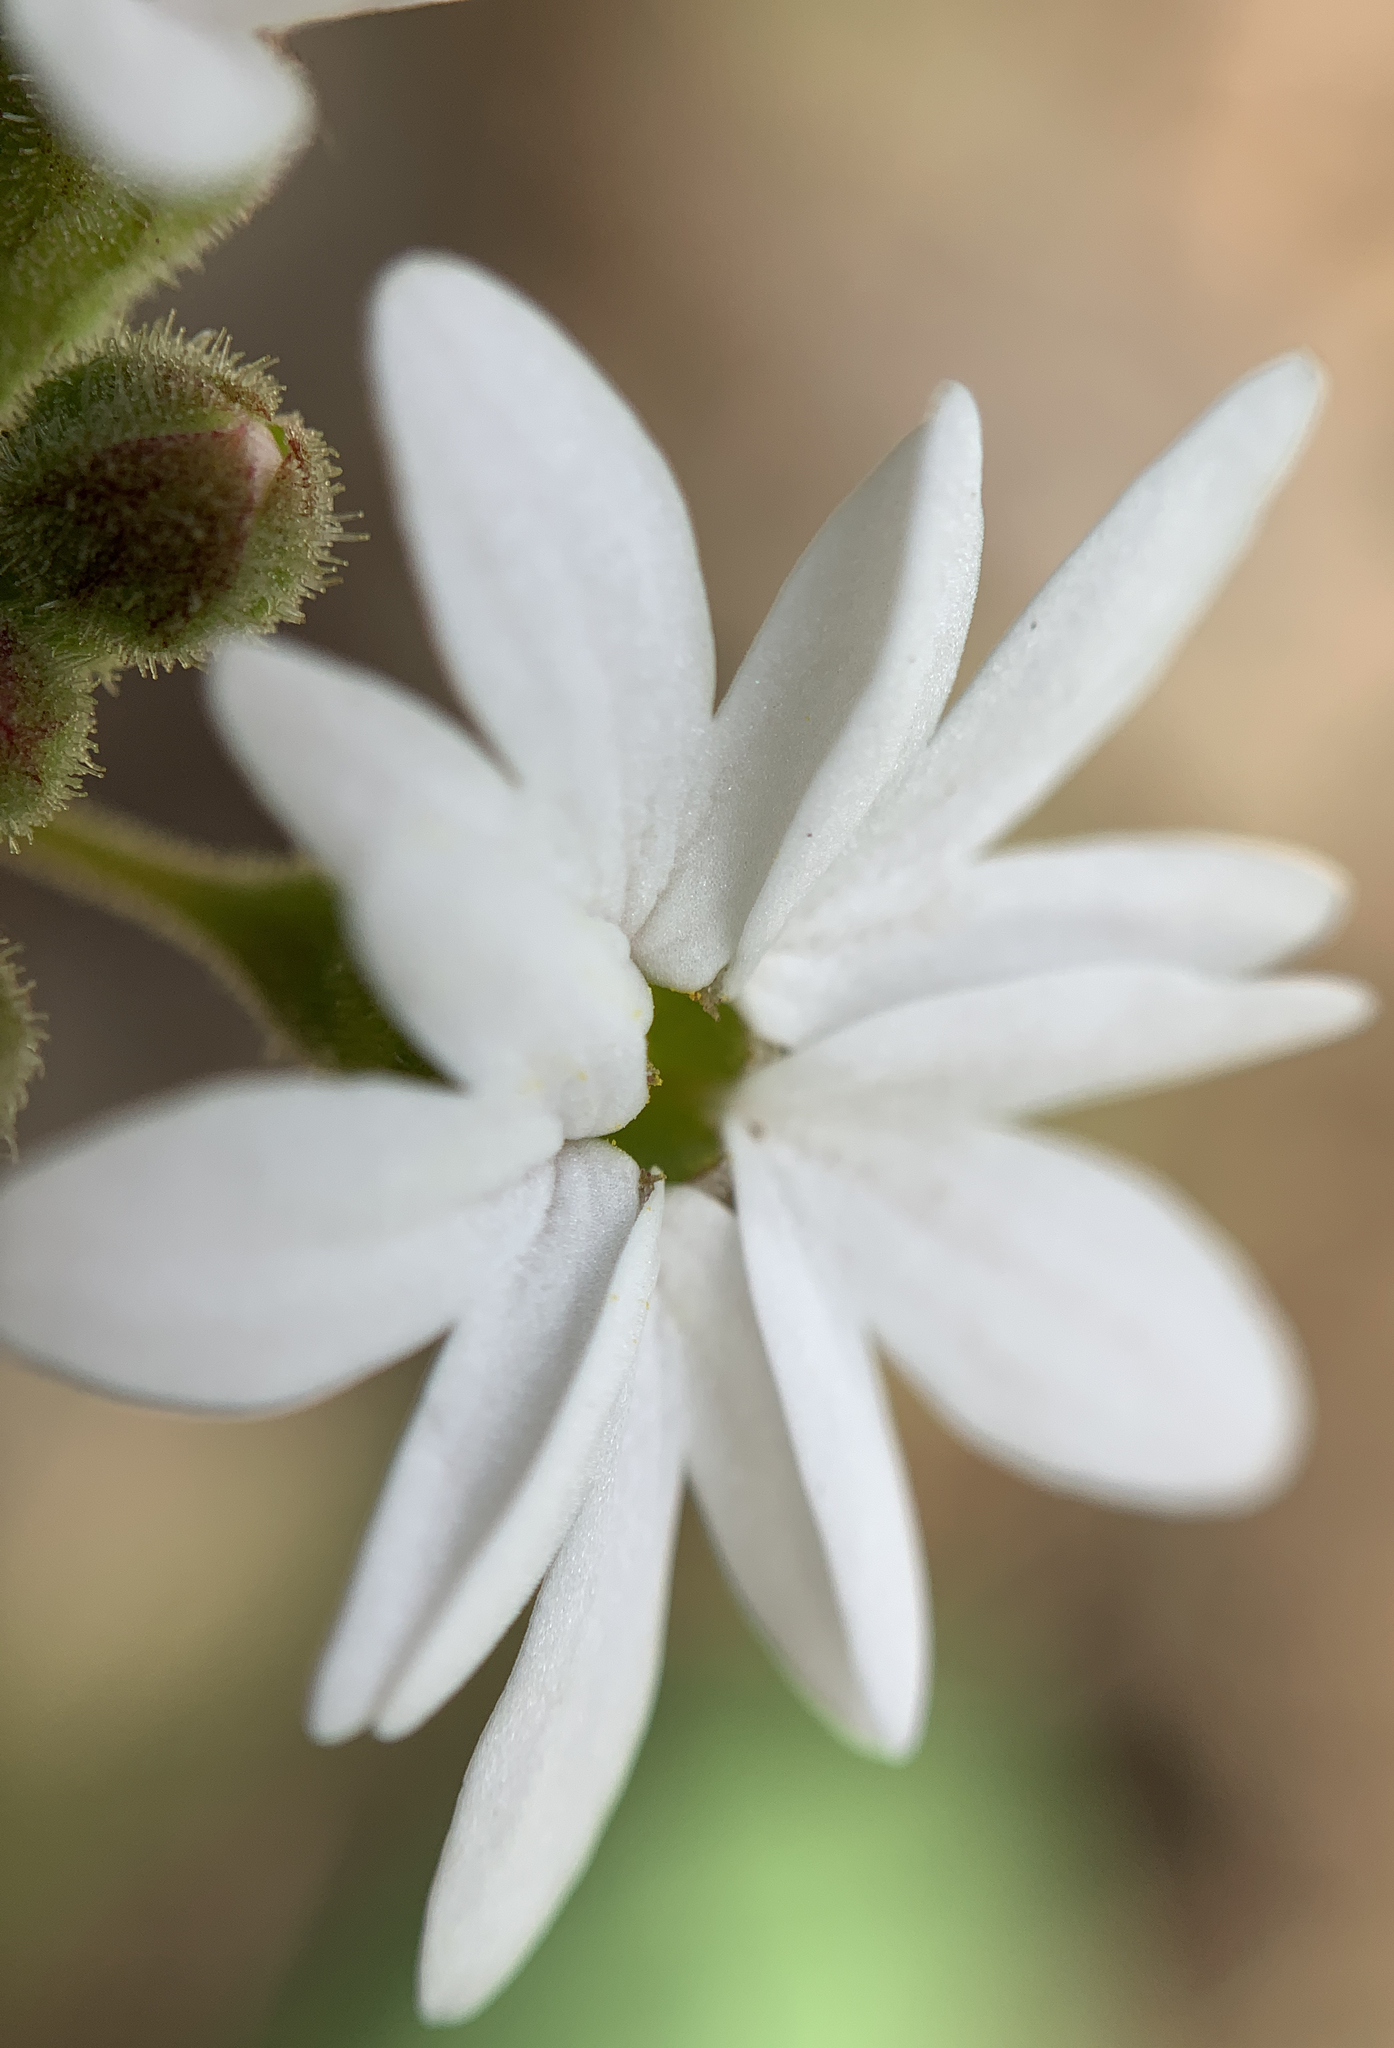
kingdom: Plantae
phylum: Tracheophyta
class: Magnoliopsida
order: Saxifragales
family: Saxifragaceae
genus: Lithophragma
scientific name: Lithophragma parviflorum
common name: Small-flowered fringe-cup
